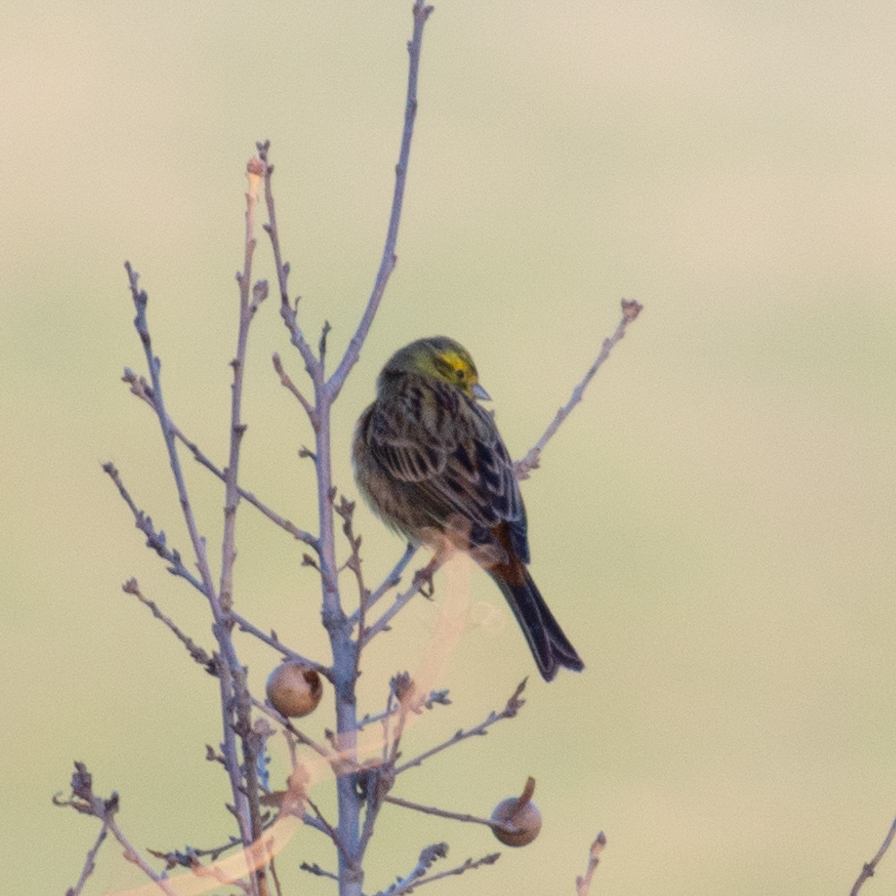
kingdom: Animalia
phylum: Chordata
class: Aves
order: Passeriformes
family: Emberizidae
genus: Emberiza
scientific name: Emberiza citrinella
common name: Yellowhammer
